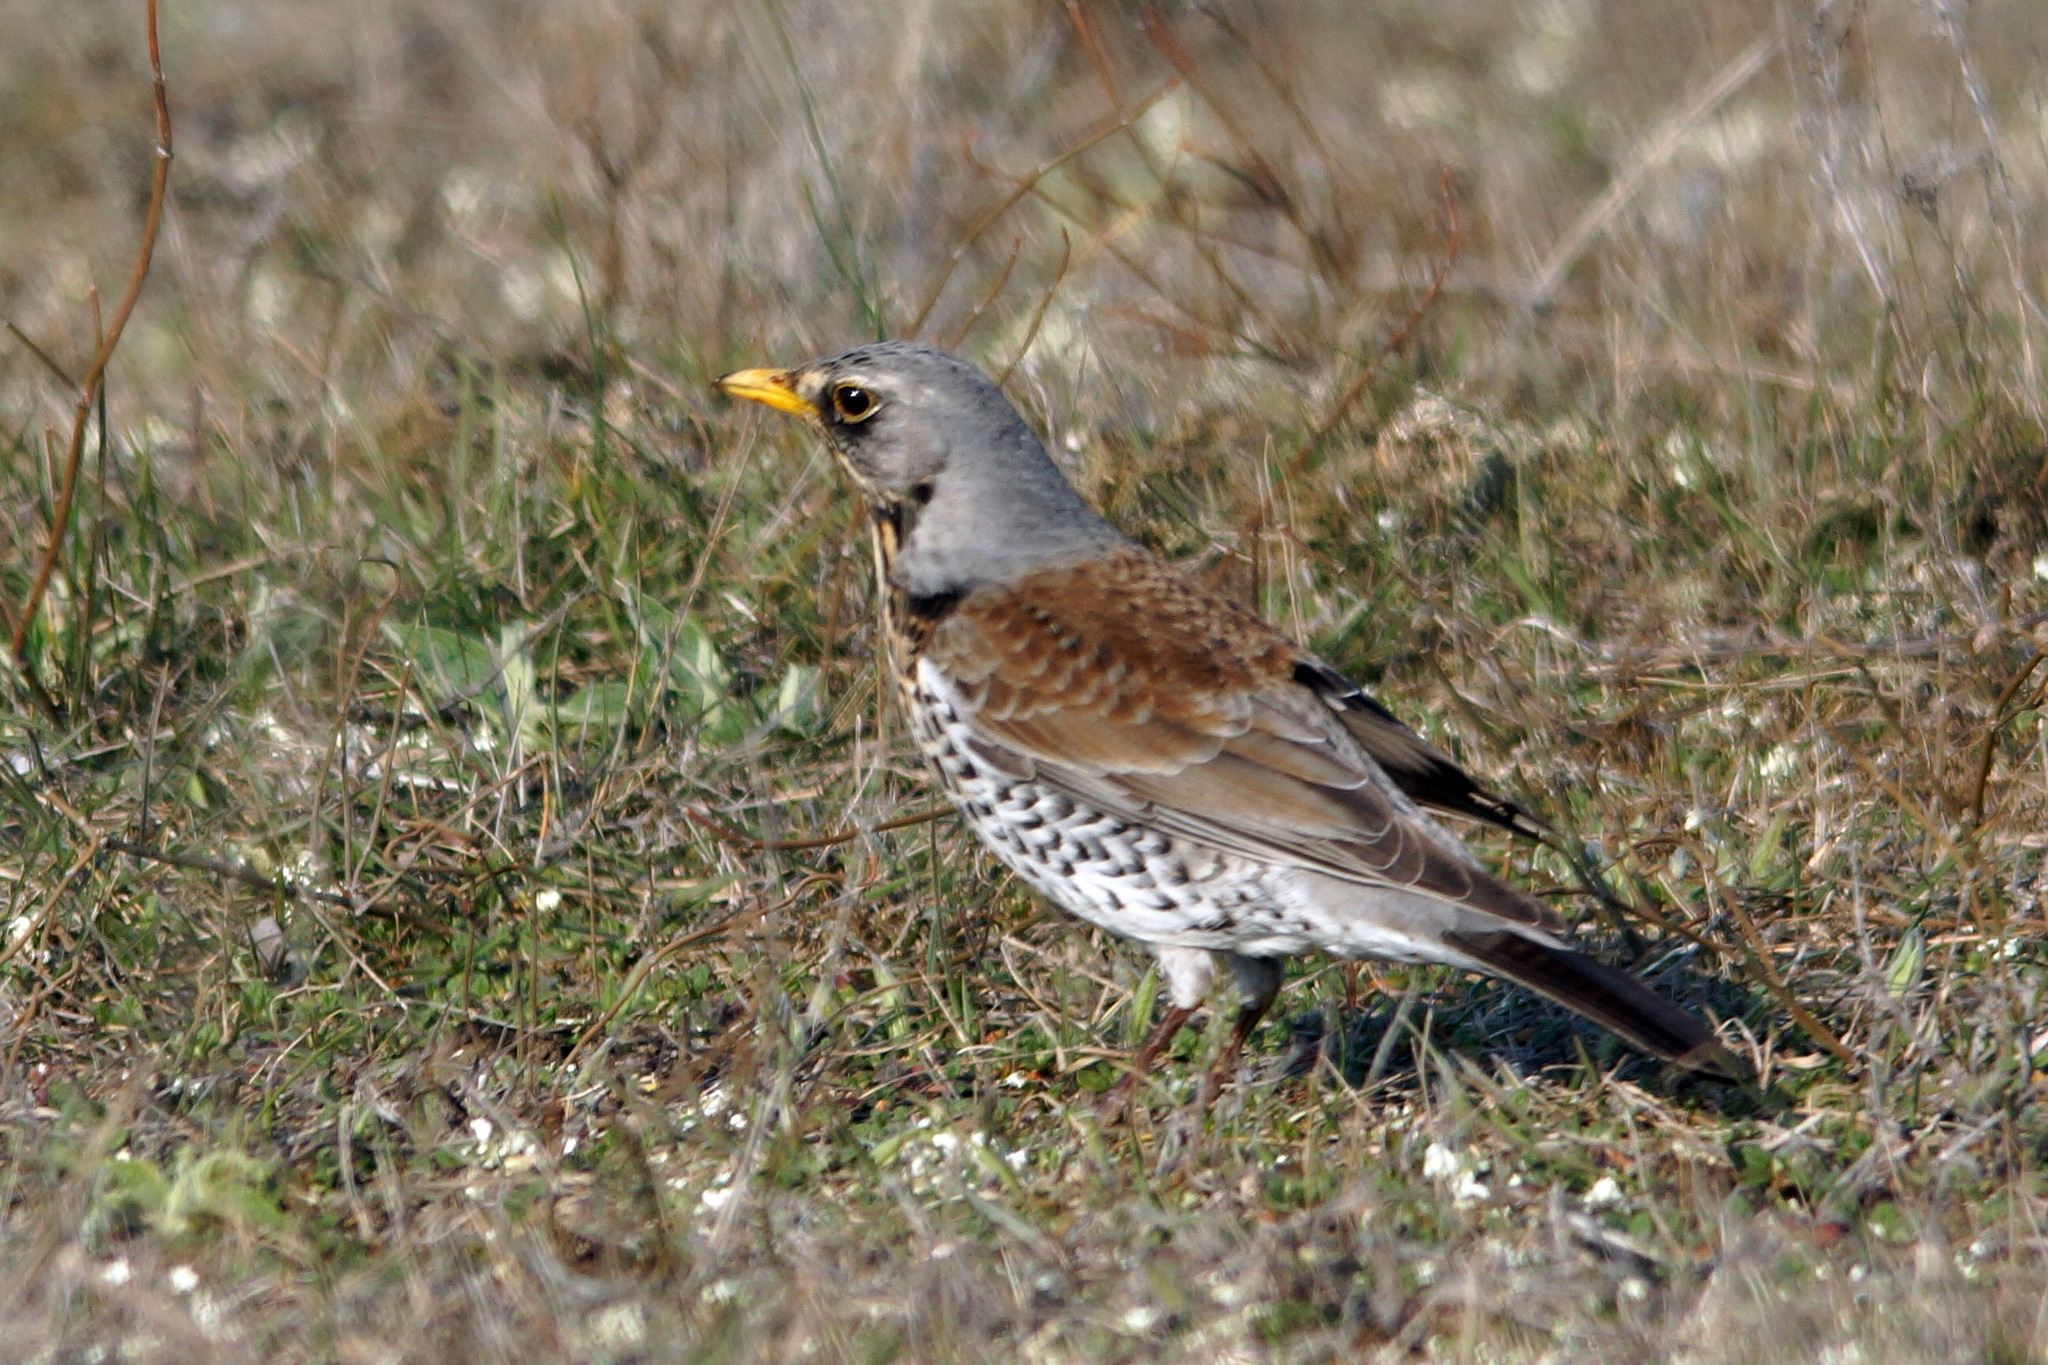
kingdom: Animalia
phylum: Chordata
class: Aves
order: Passeriformes
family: Turdidae
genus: Turdus
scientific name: Turdus pilaris
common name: Fieldfare
